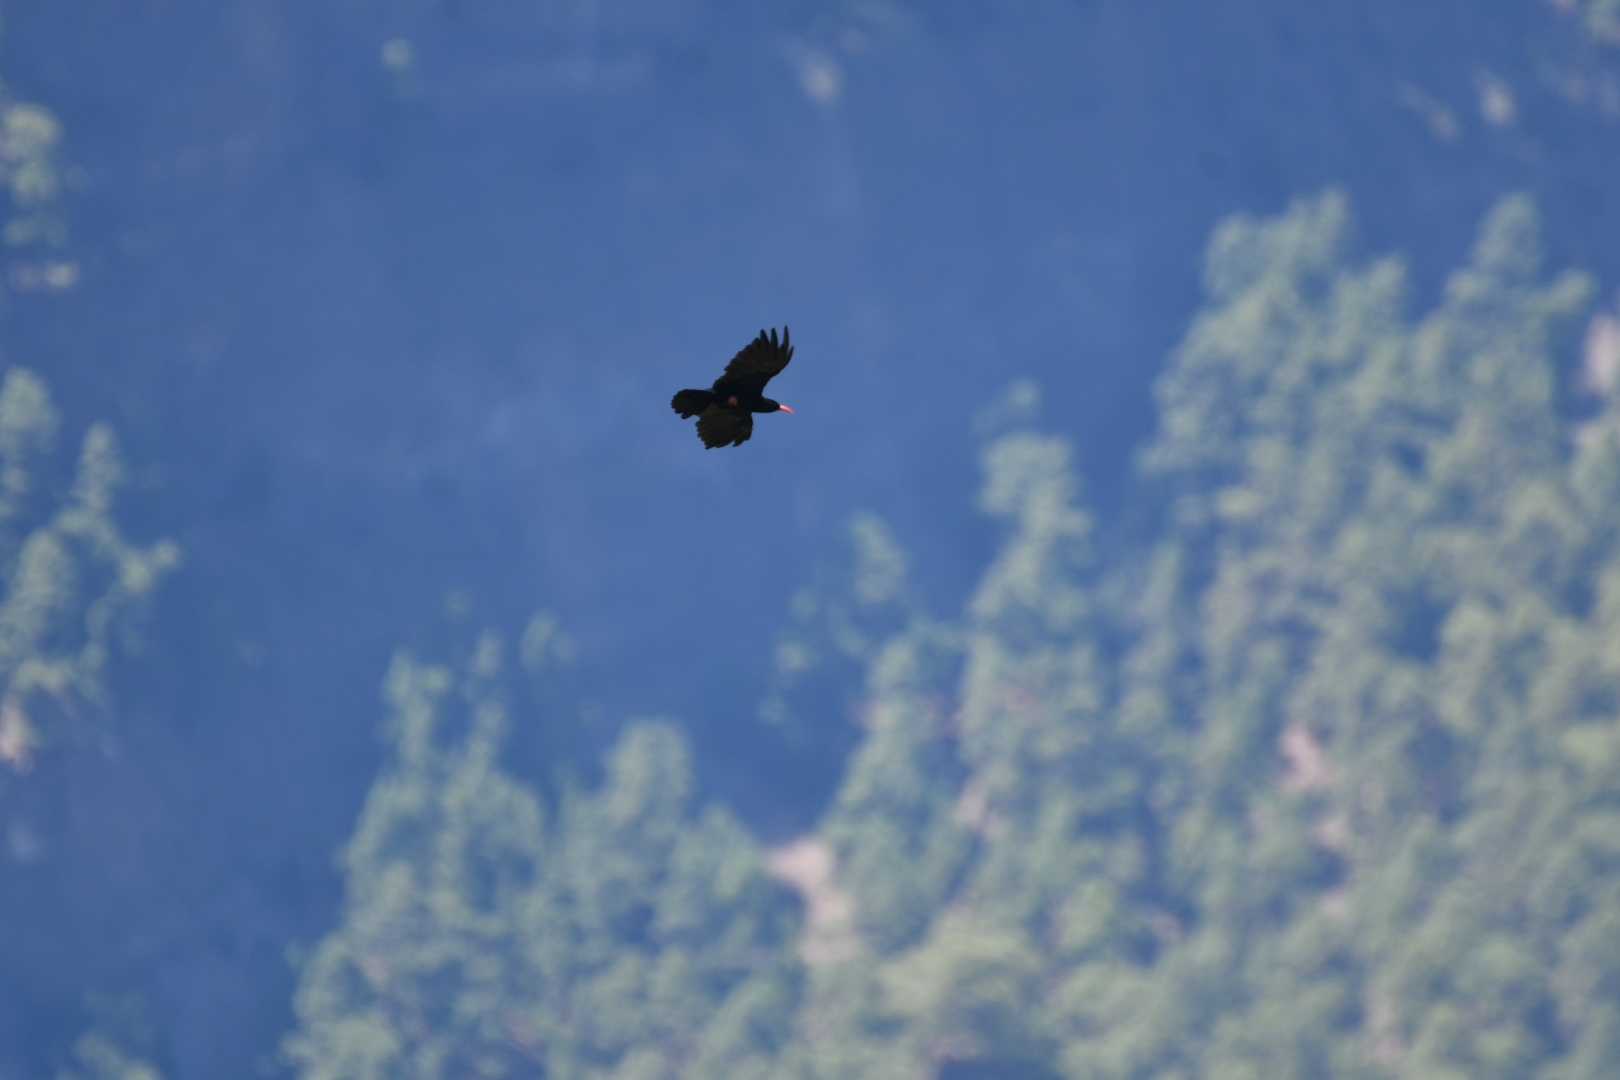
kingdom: Animalia
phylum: Chordata
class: Aves
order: Passeriformes
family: Corvidae
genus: Pyrrhocorax
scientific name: Pyrrhocorax pyrrhocorax
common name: Red-billed chough
